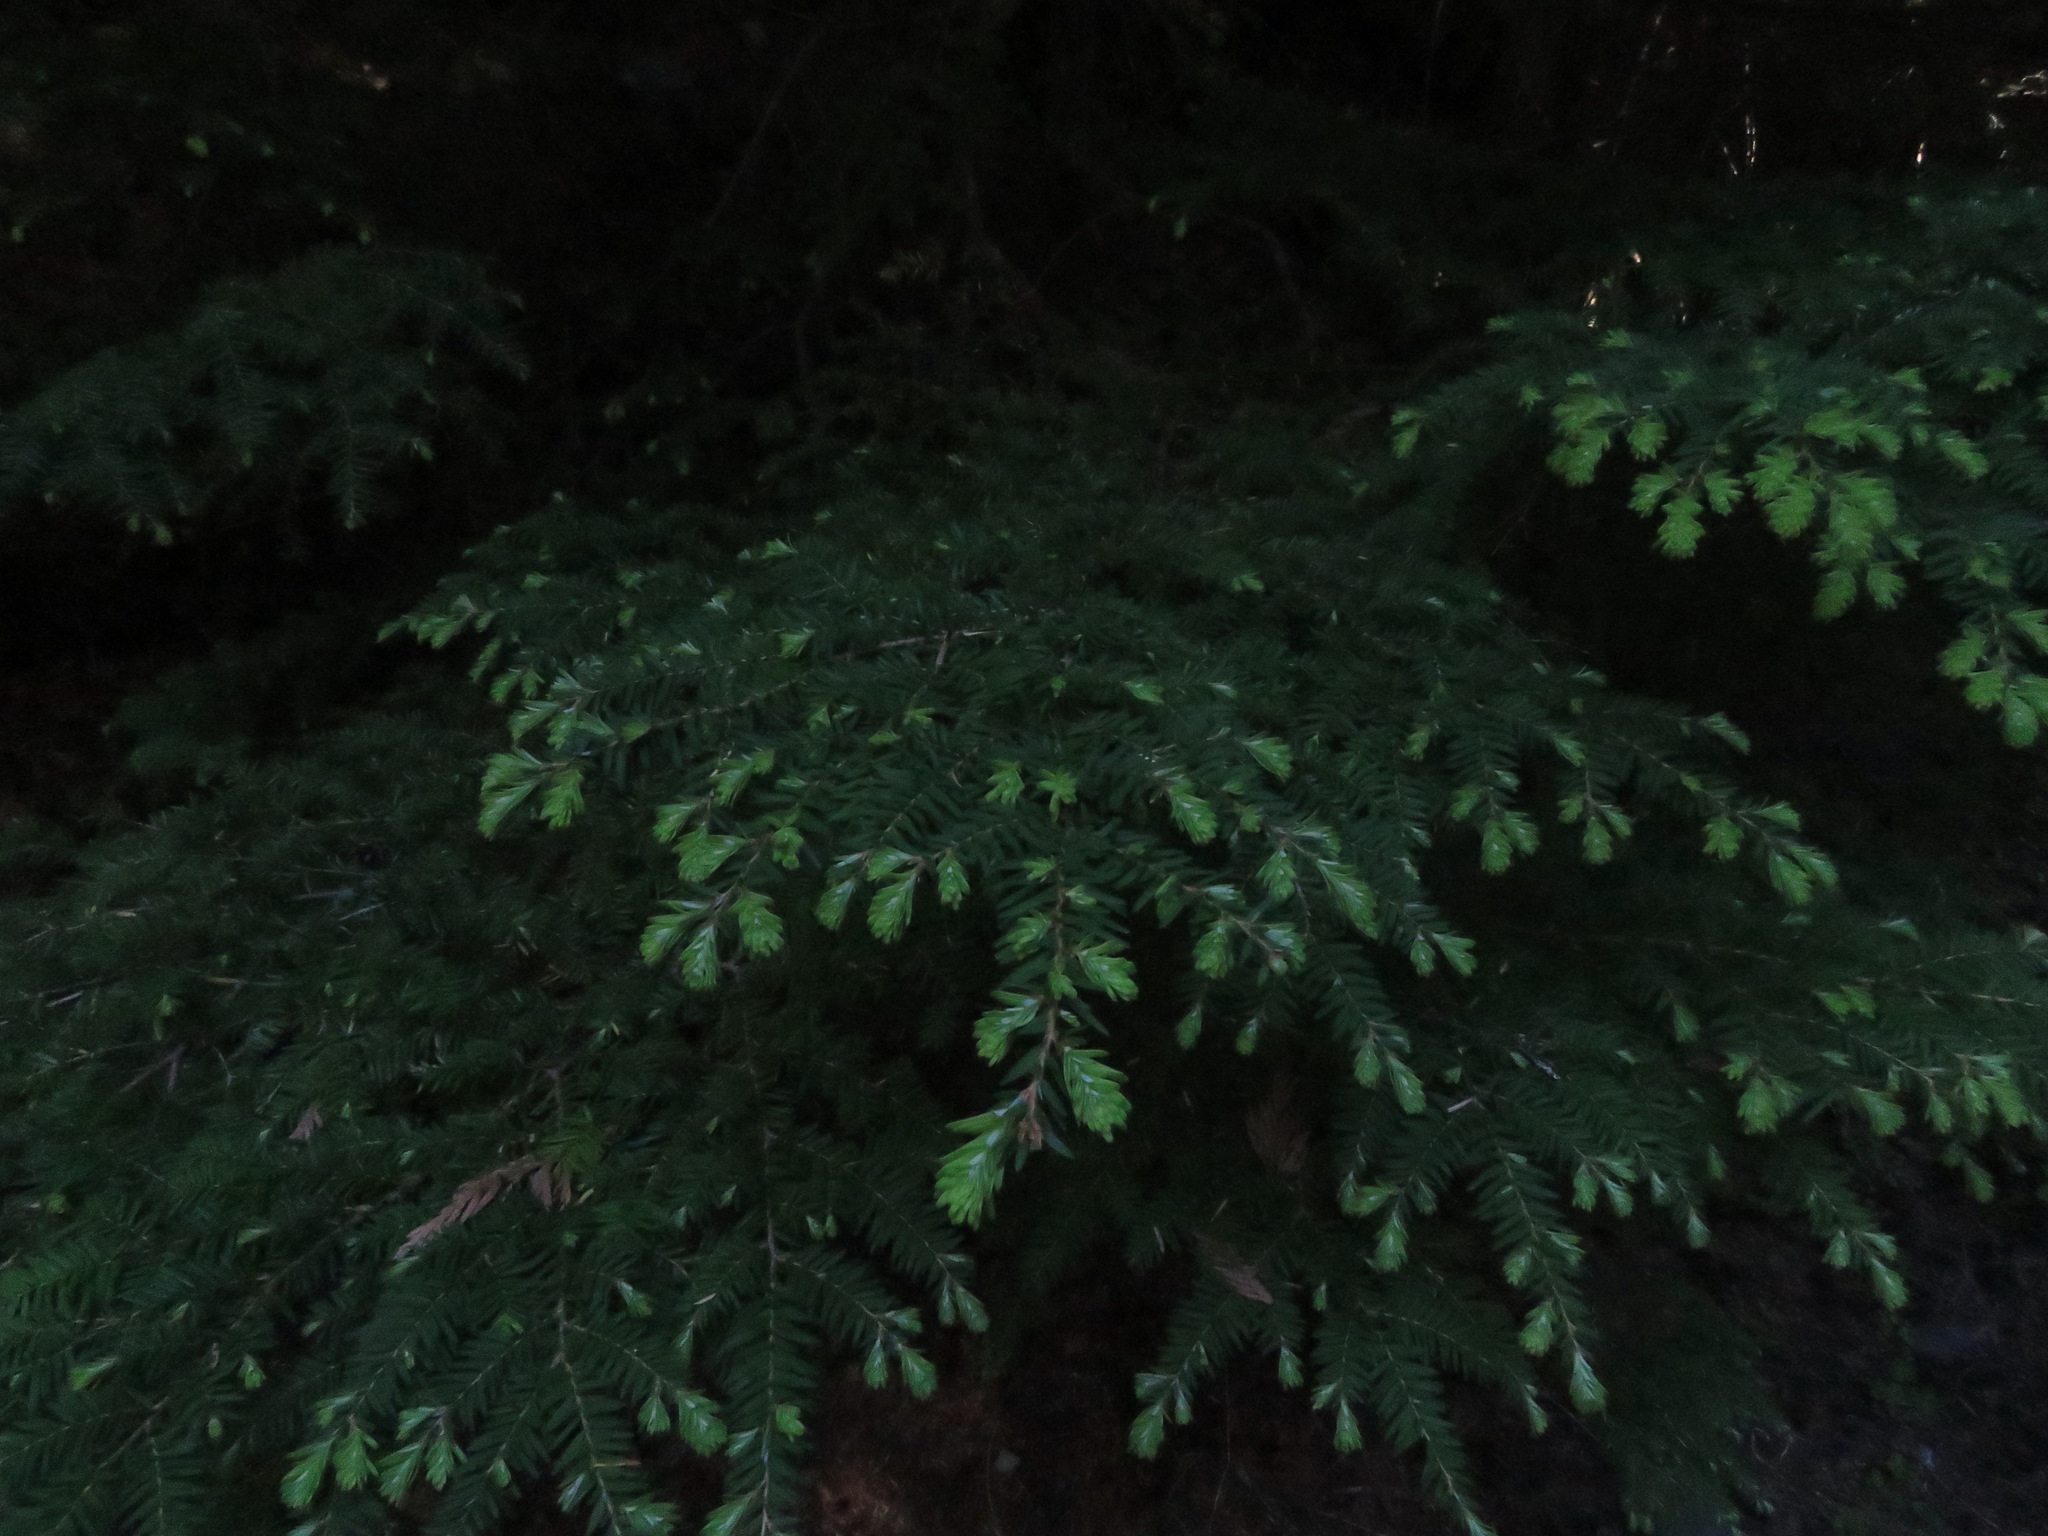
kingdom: Plantae
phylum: Tracheophyta
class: Pinopsida
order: Pinales
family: Pinaceae
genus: Tsuga
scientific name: Tsuga heterophylla
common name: Western hemlock
